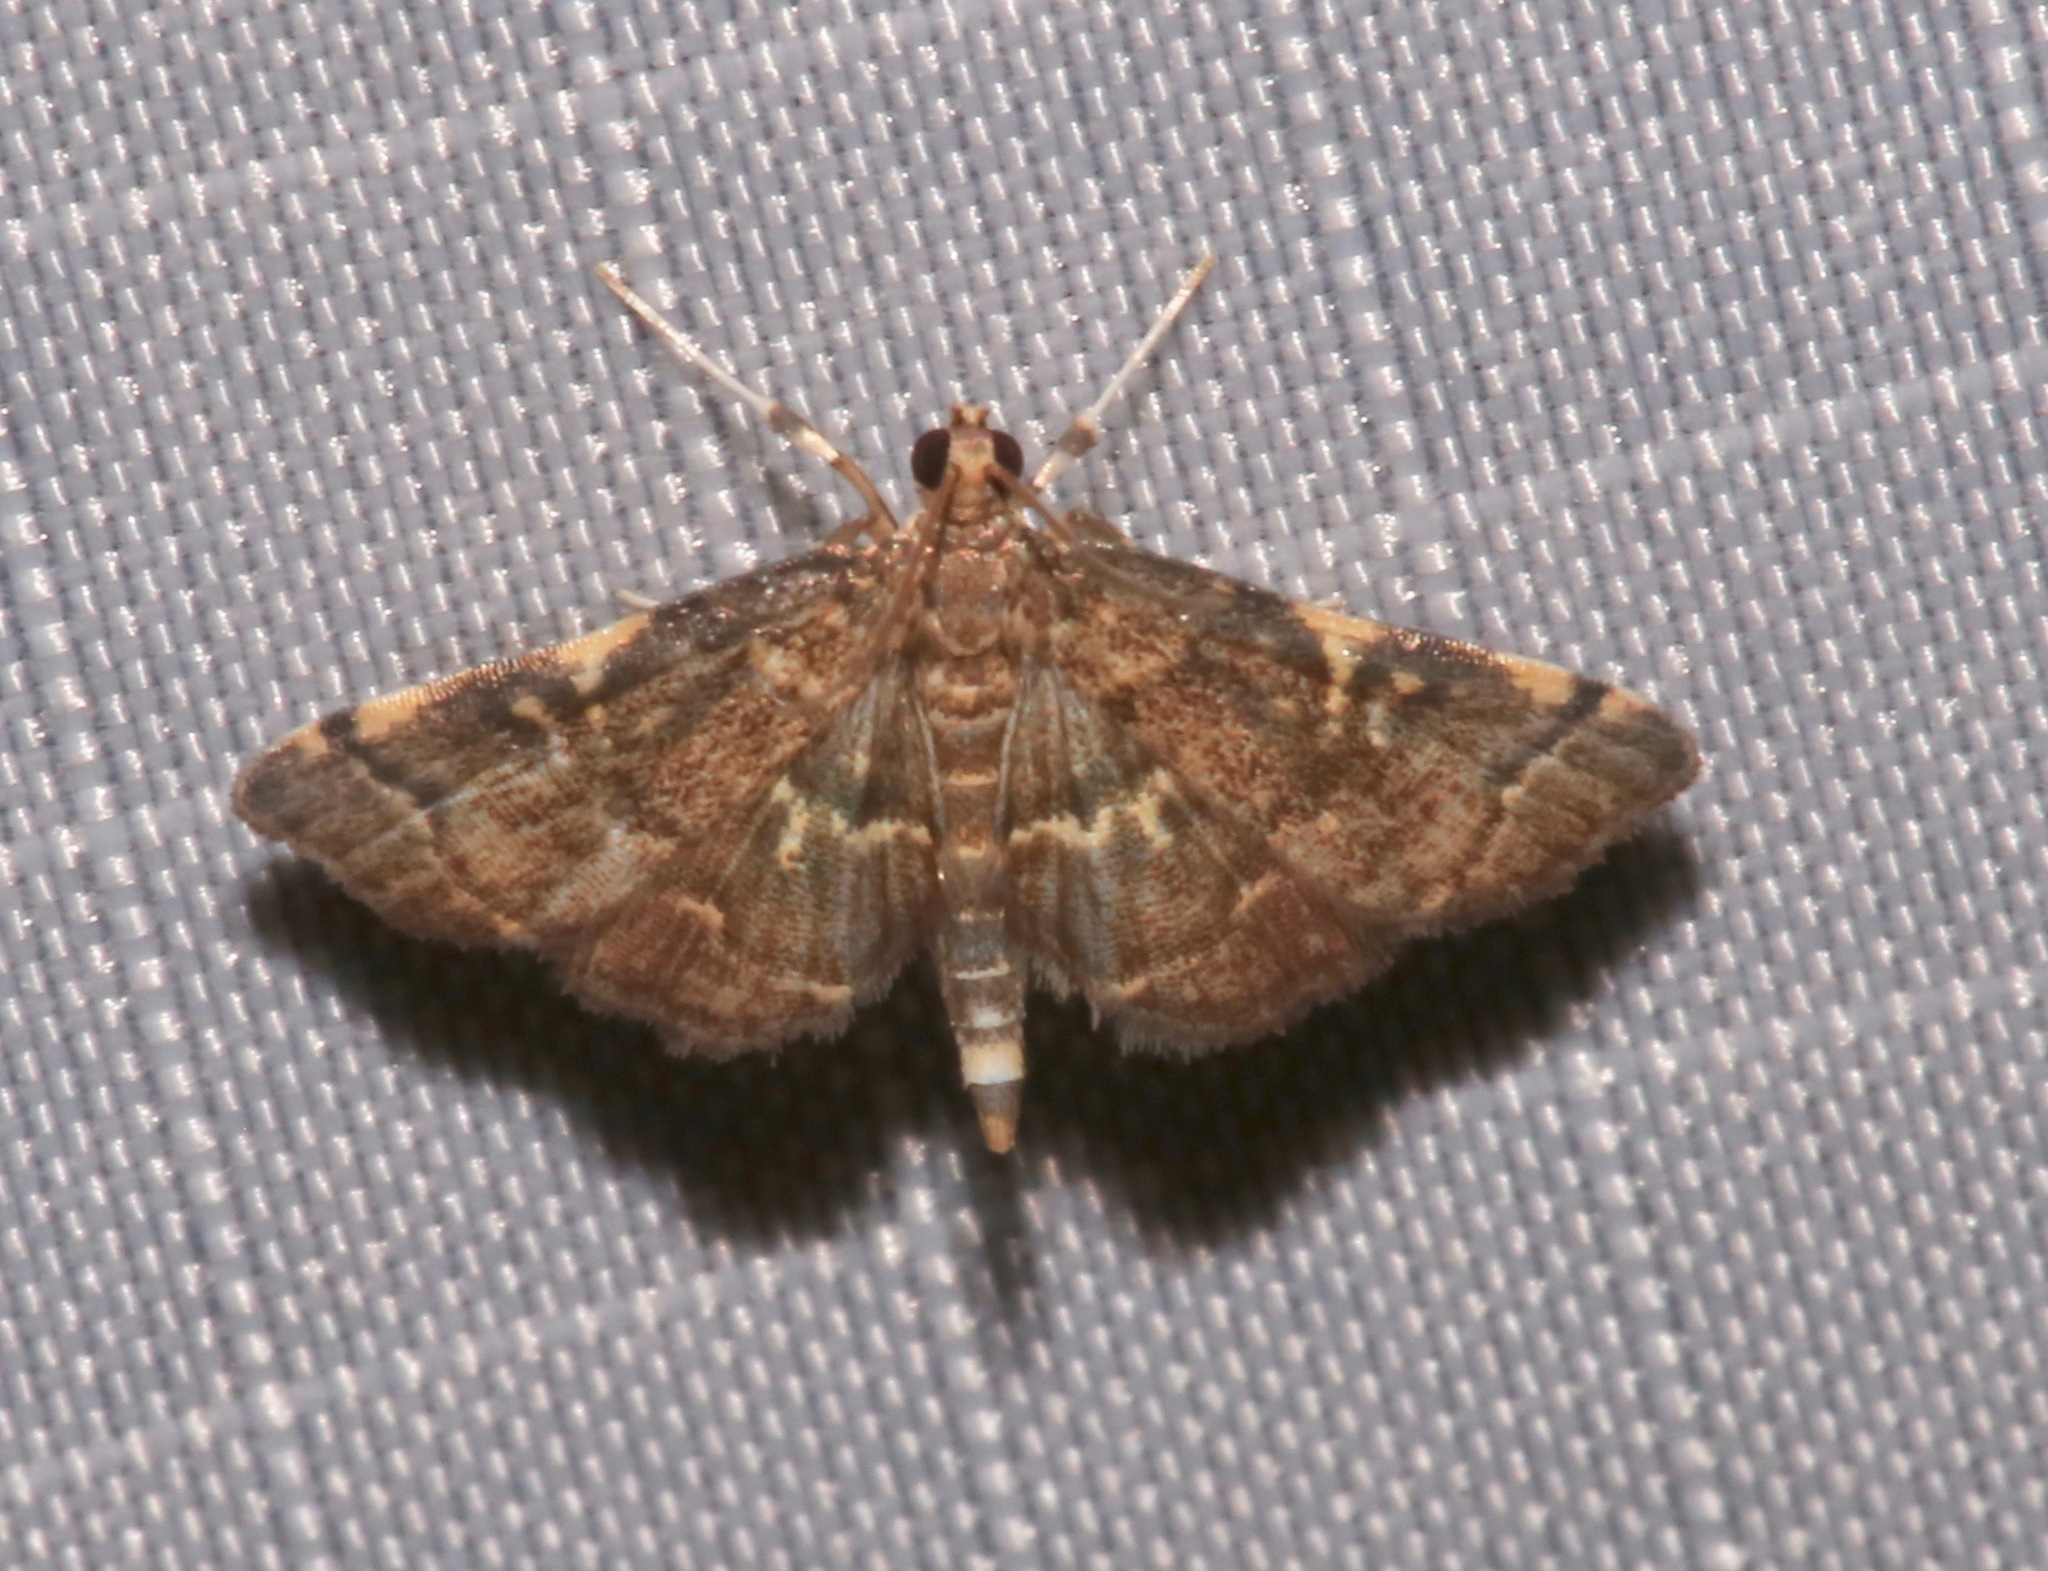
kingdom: Animalia
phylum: Arthropoda
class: Insecta
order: Lepidoptera
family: Crambidae
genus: Anageshna
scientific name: Anageshna primordialis
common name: Yellow-spotted webworm moth
